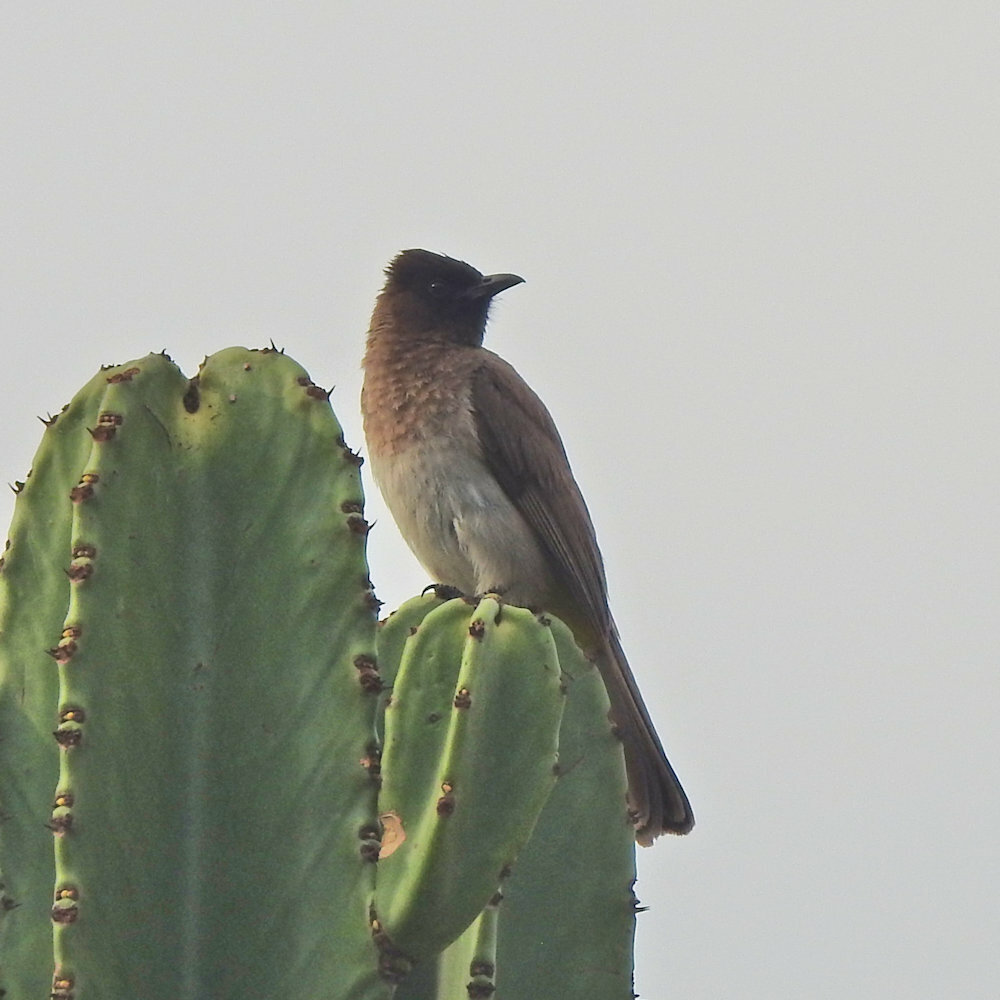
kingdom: Animalia
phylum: Chordata
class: Aves
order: Passeriformes
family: Pycnonotidae
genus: Pycnonotus
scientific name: Pycnonotus barbatus
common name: Common bulbul
